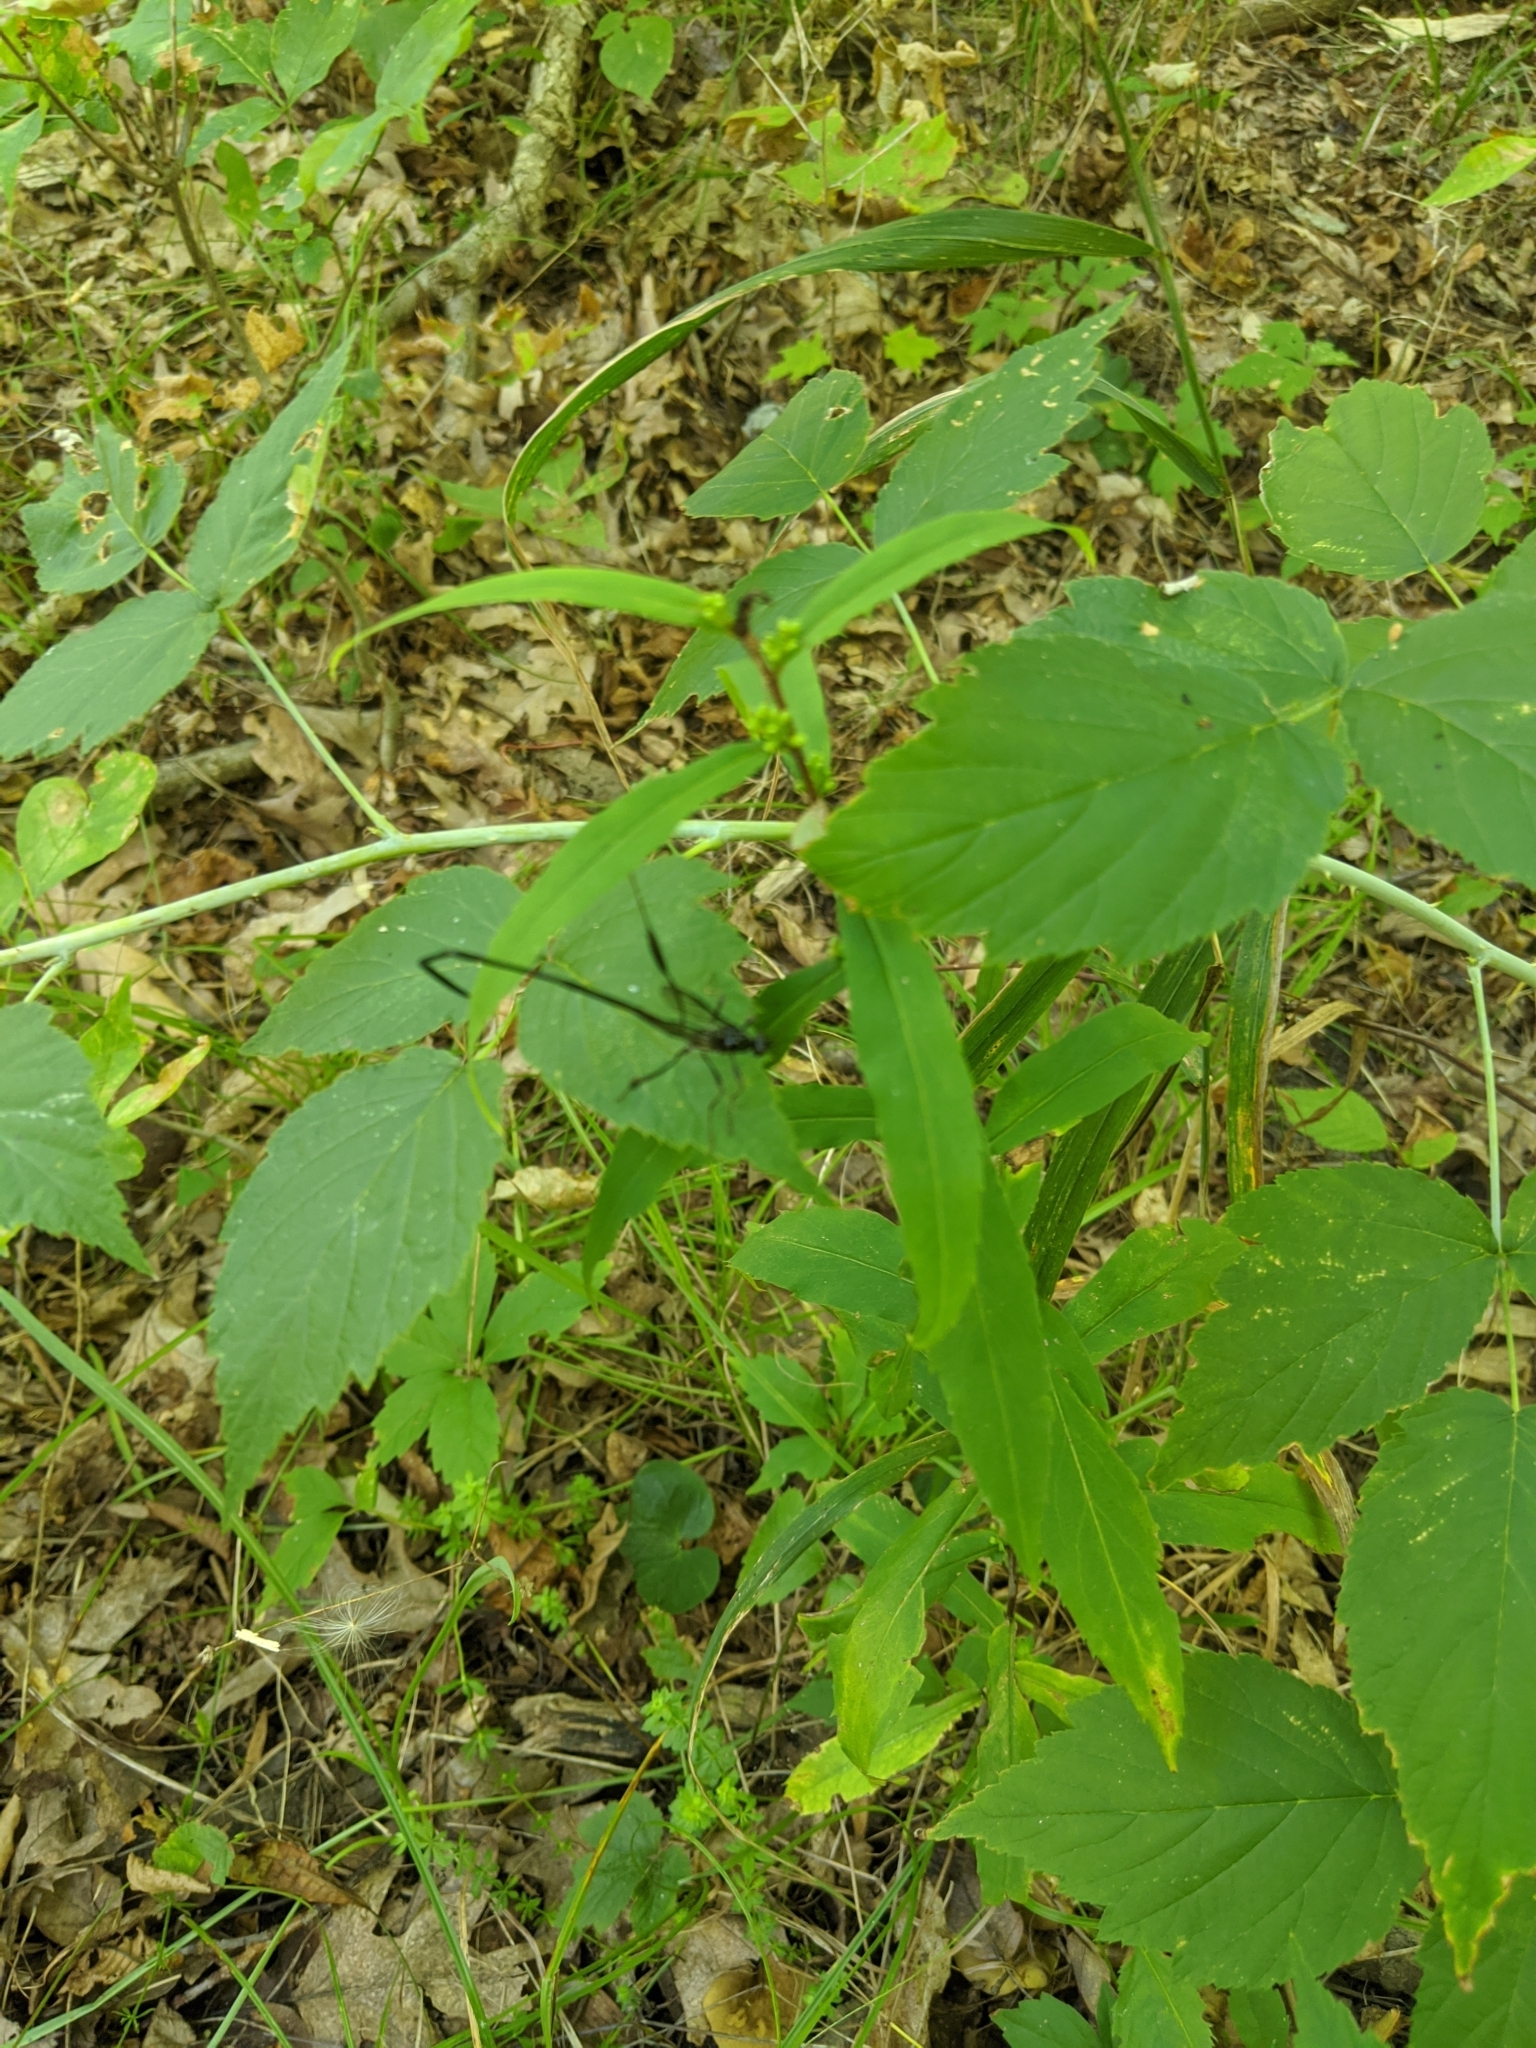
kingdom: Animalia
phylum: Arthropoda
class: Insecta
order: Hymenoptera
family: Pelecinidae
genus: Pelecinus
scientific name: Pelecinus polyturator
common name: American pelecinid wasp
